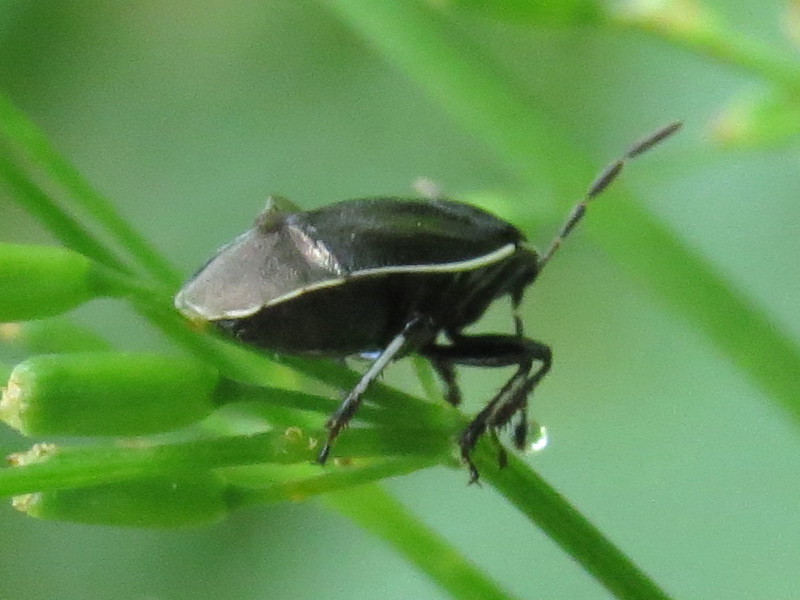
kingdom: Animalia
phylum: Arthropoda
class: Insecta
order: Hemiptera
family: Cydnidae
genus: Sehirus
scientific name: Sehirus cinctus
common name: White-margined burrower bug
